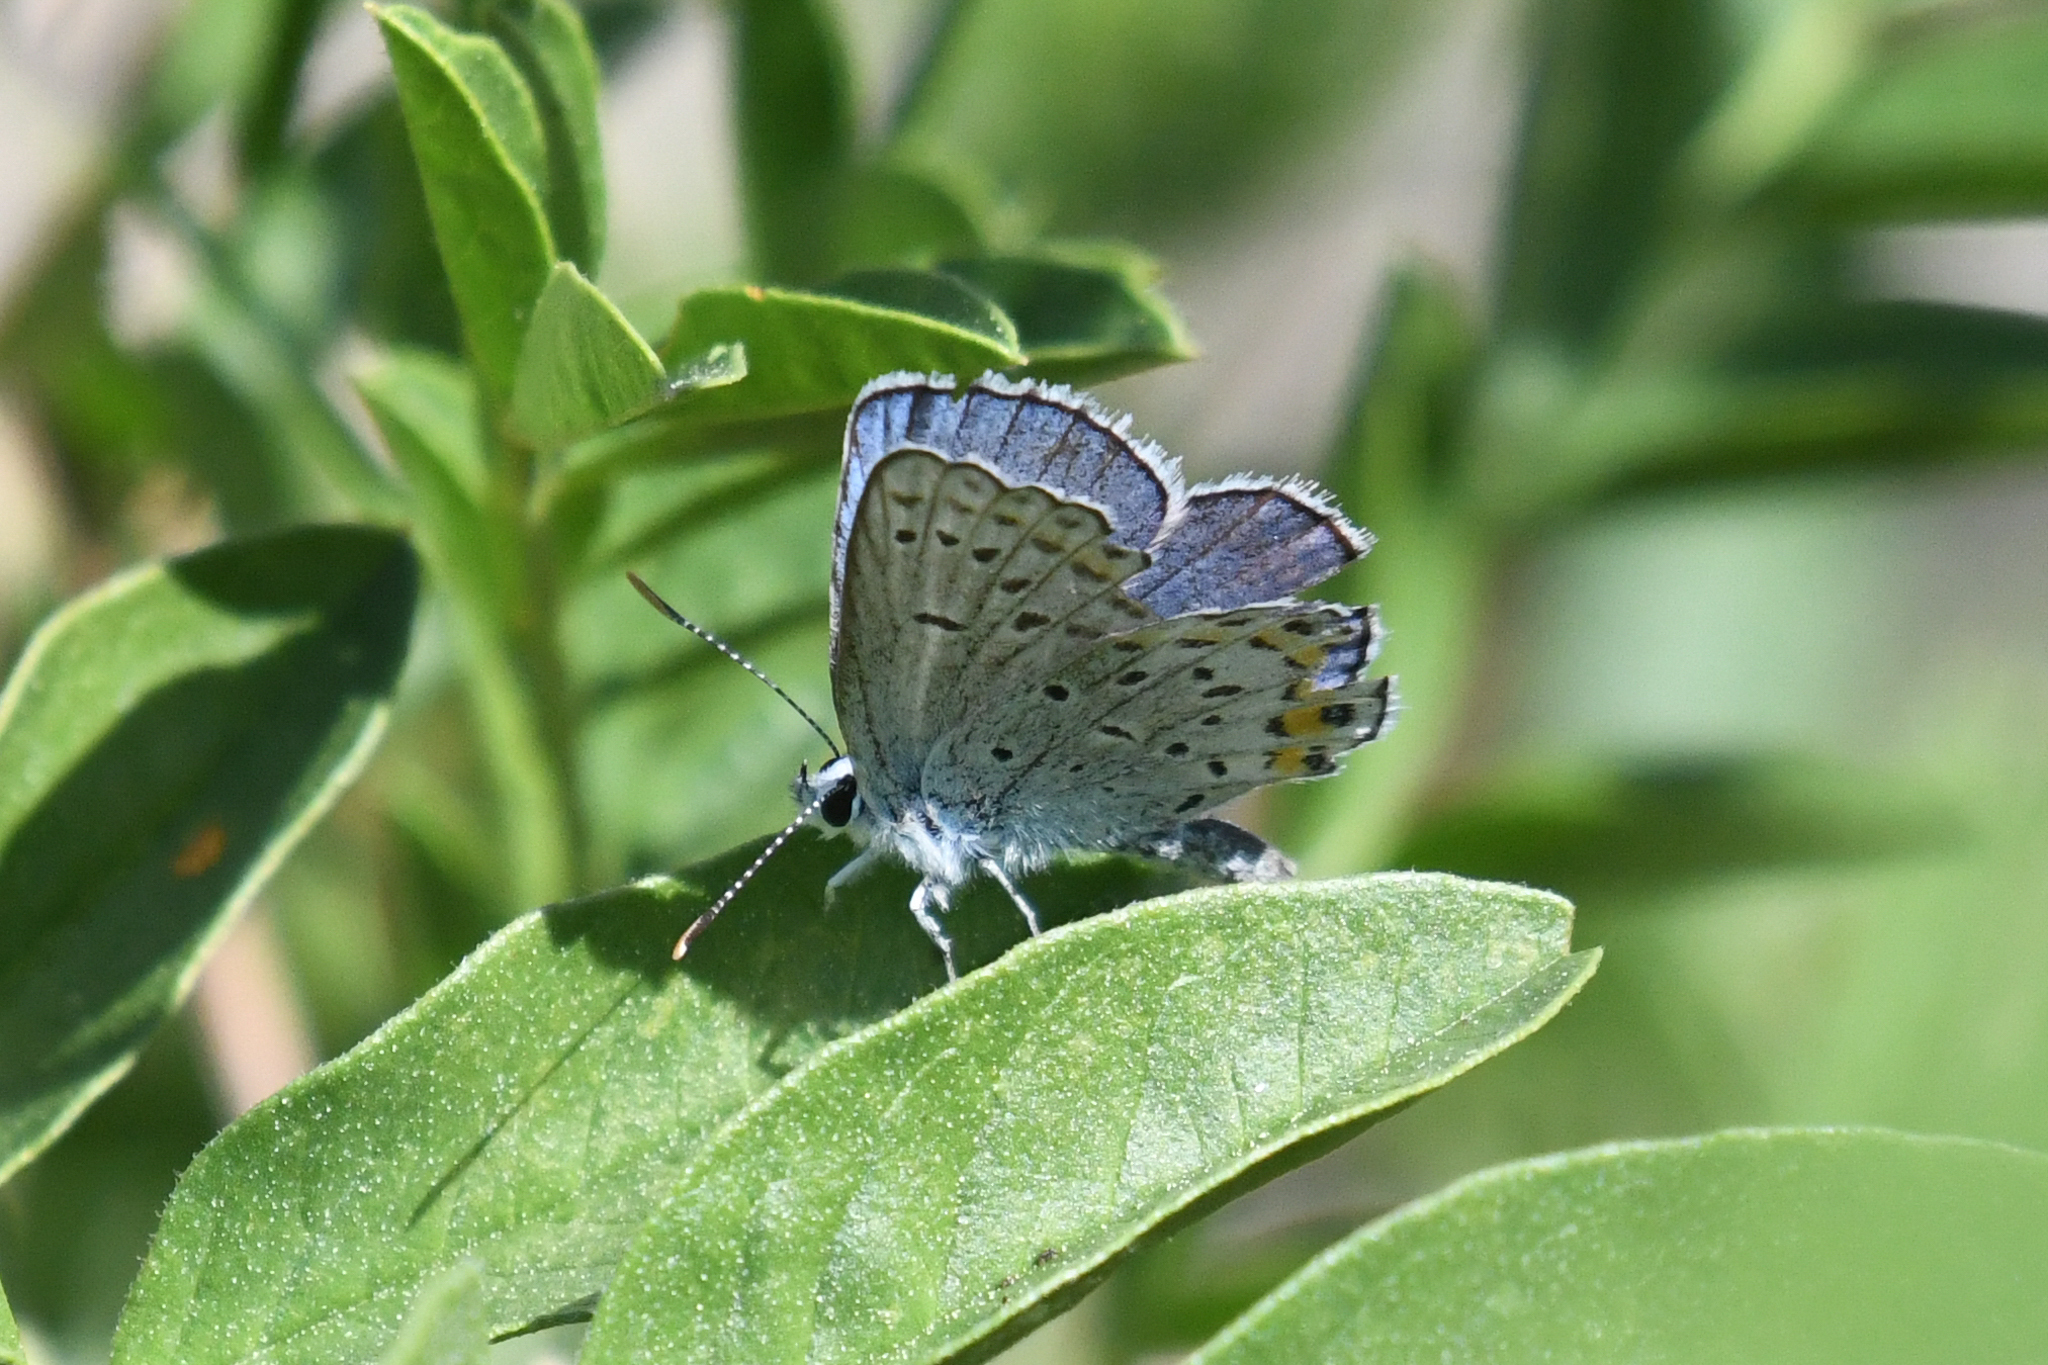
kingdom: Animalia
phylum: Arthropoda
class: Insecta
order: Lepidoptera
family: Lycaenidae
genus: Lycaeides
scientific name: Lycaeides melissa
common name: Melissa blue
